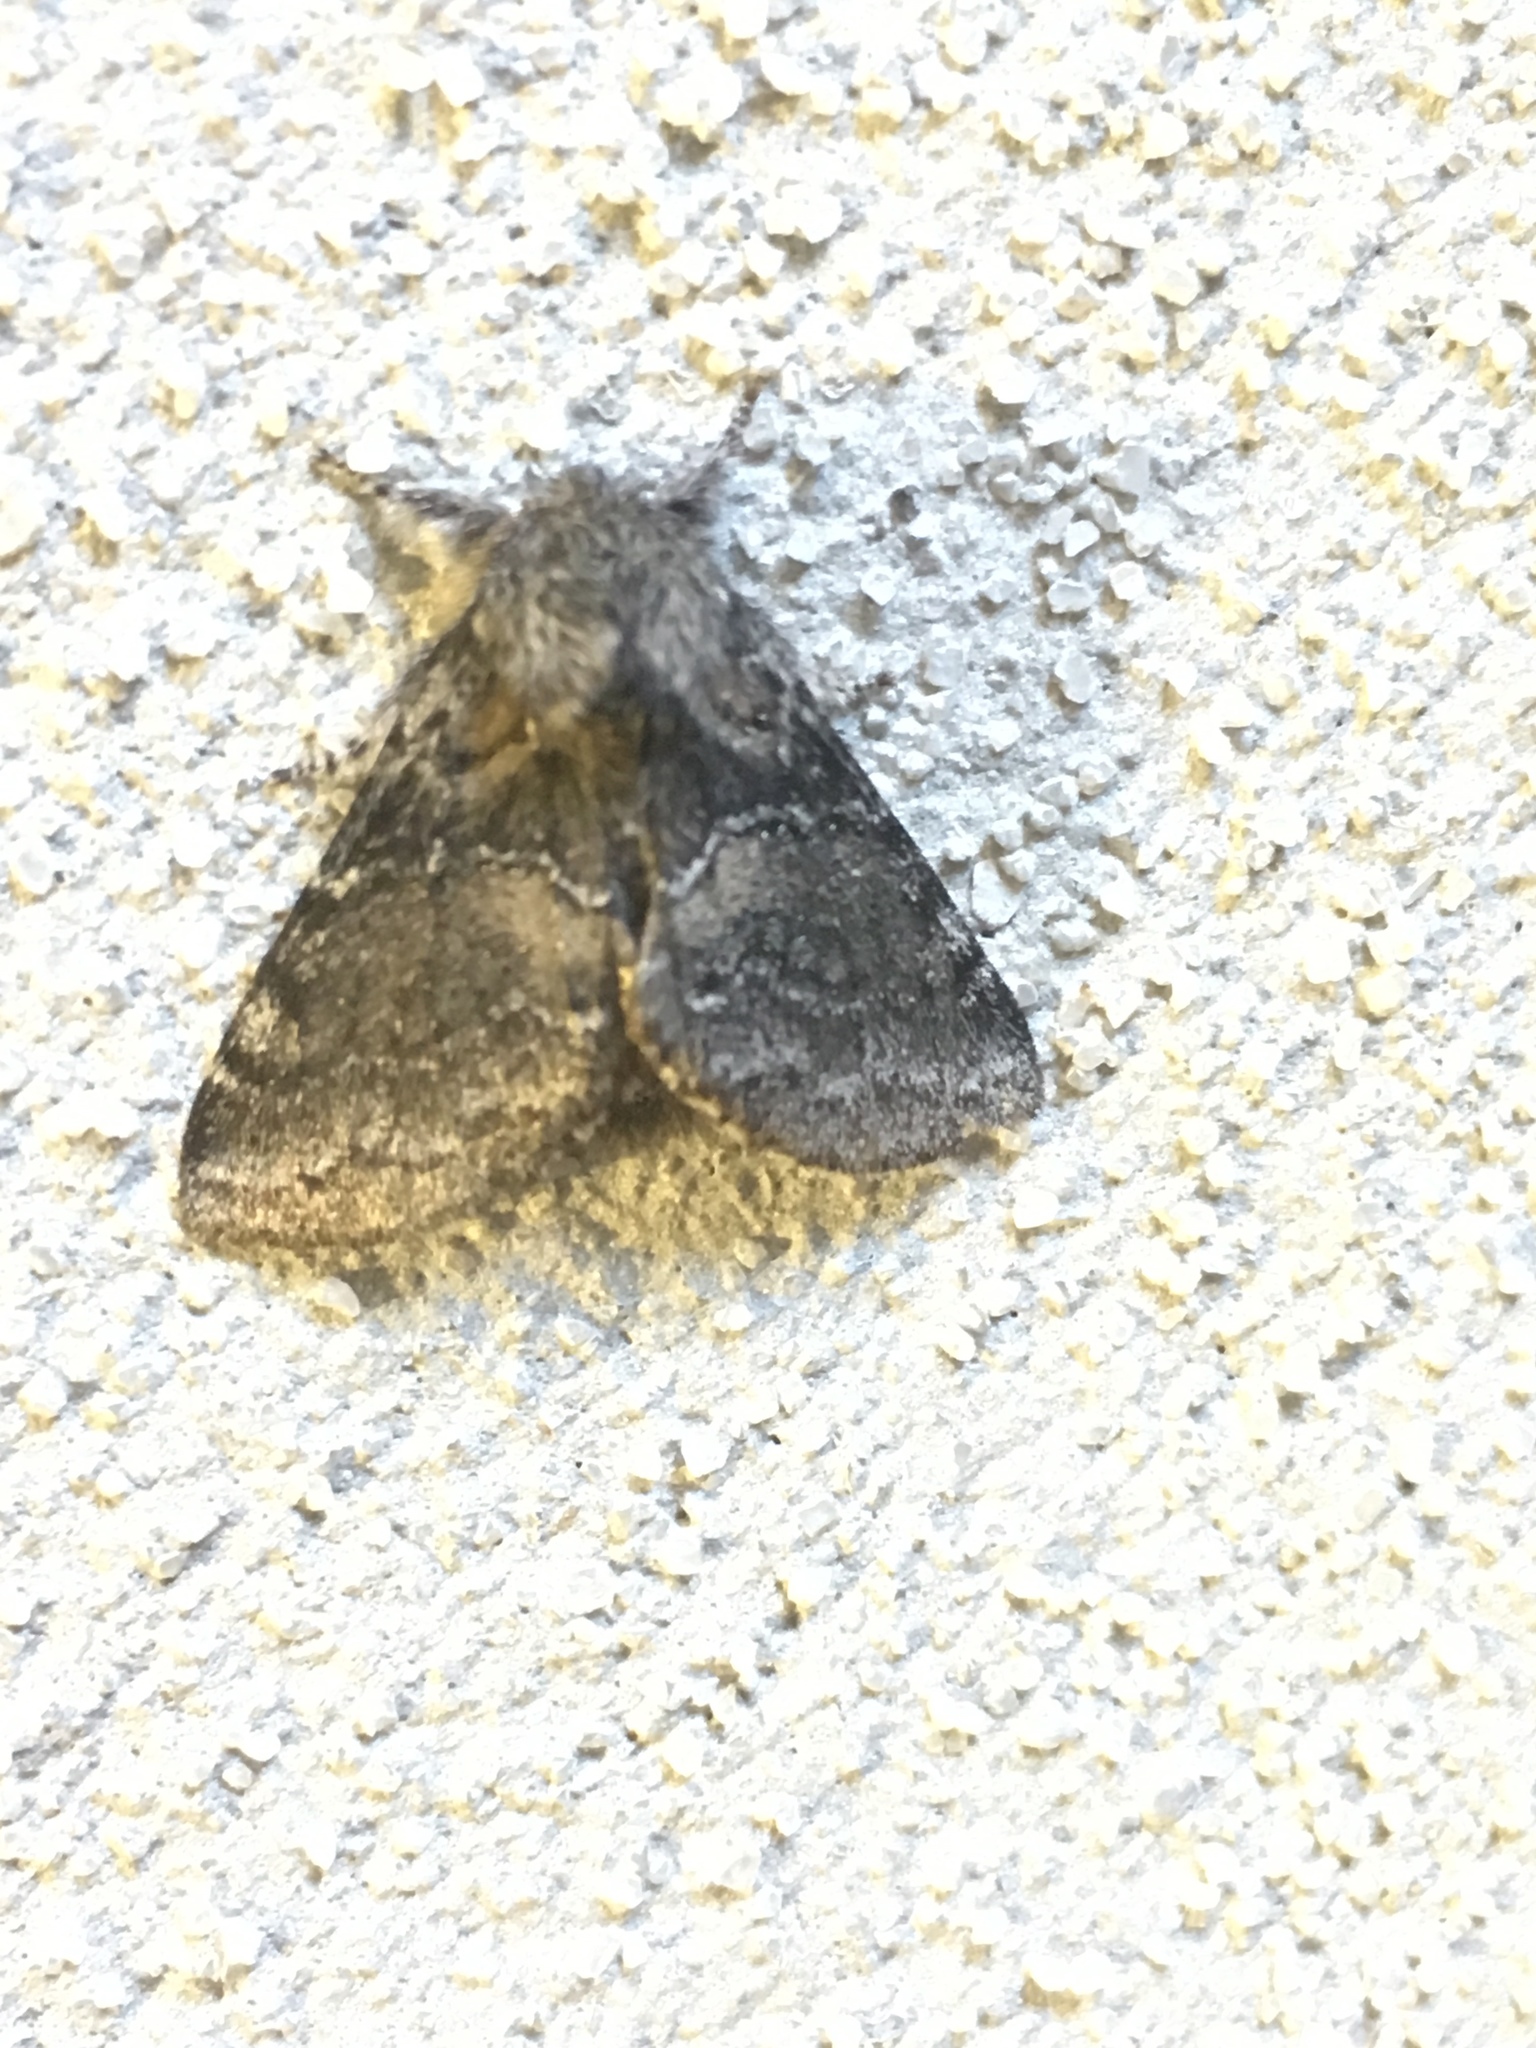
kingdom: Animalia
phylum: Arthropoda
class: Insecta
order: Lepidoptera
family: Notodontidae
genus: Gluphisia
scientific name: Gluphisia septentrionis
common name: Common gluphisia
